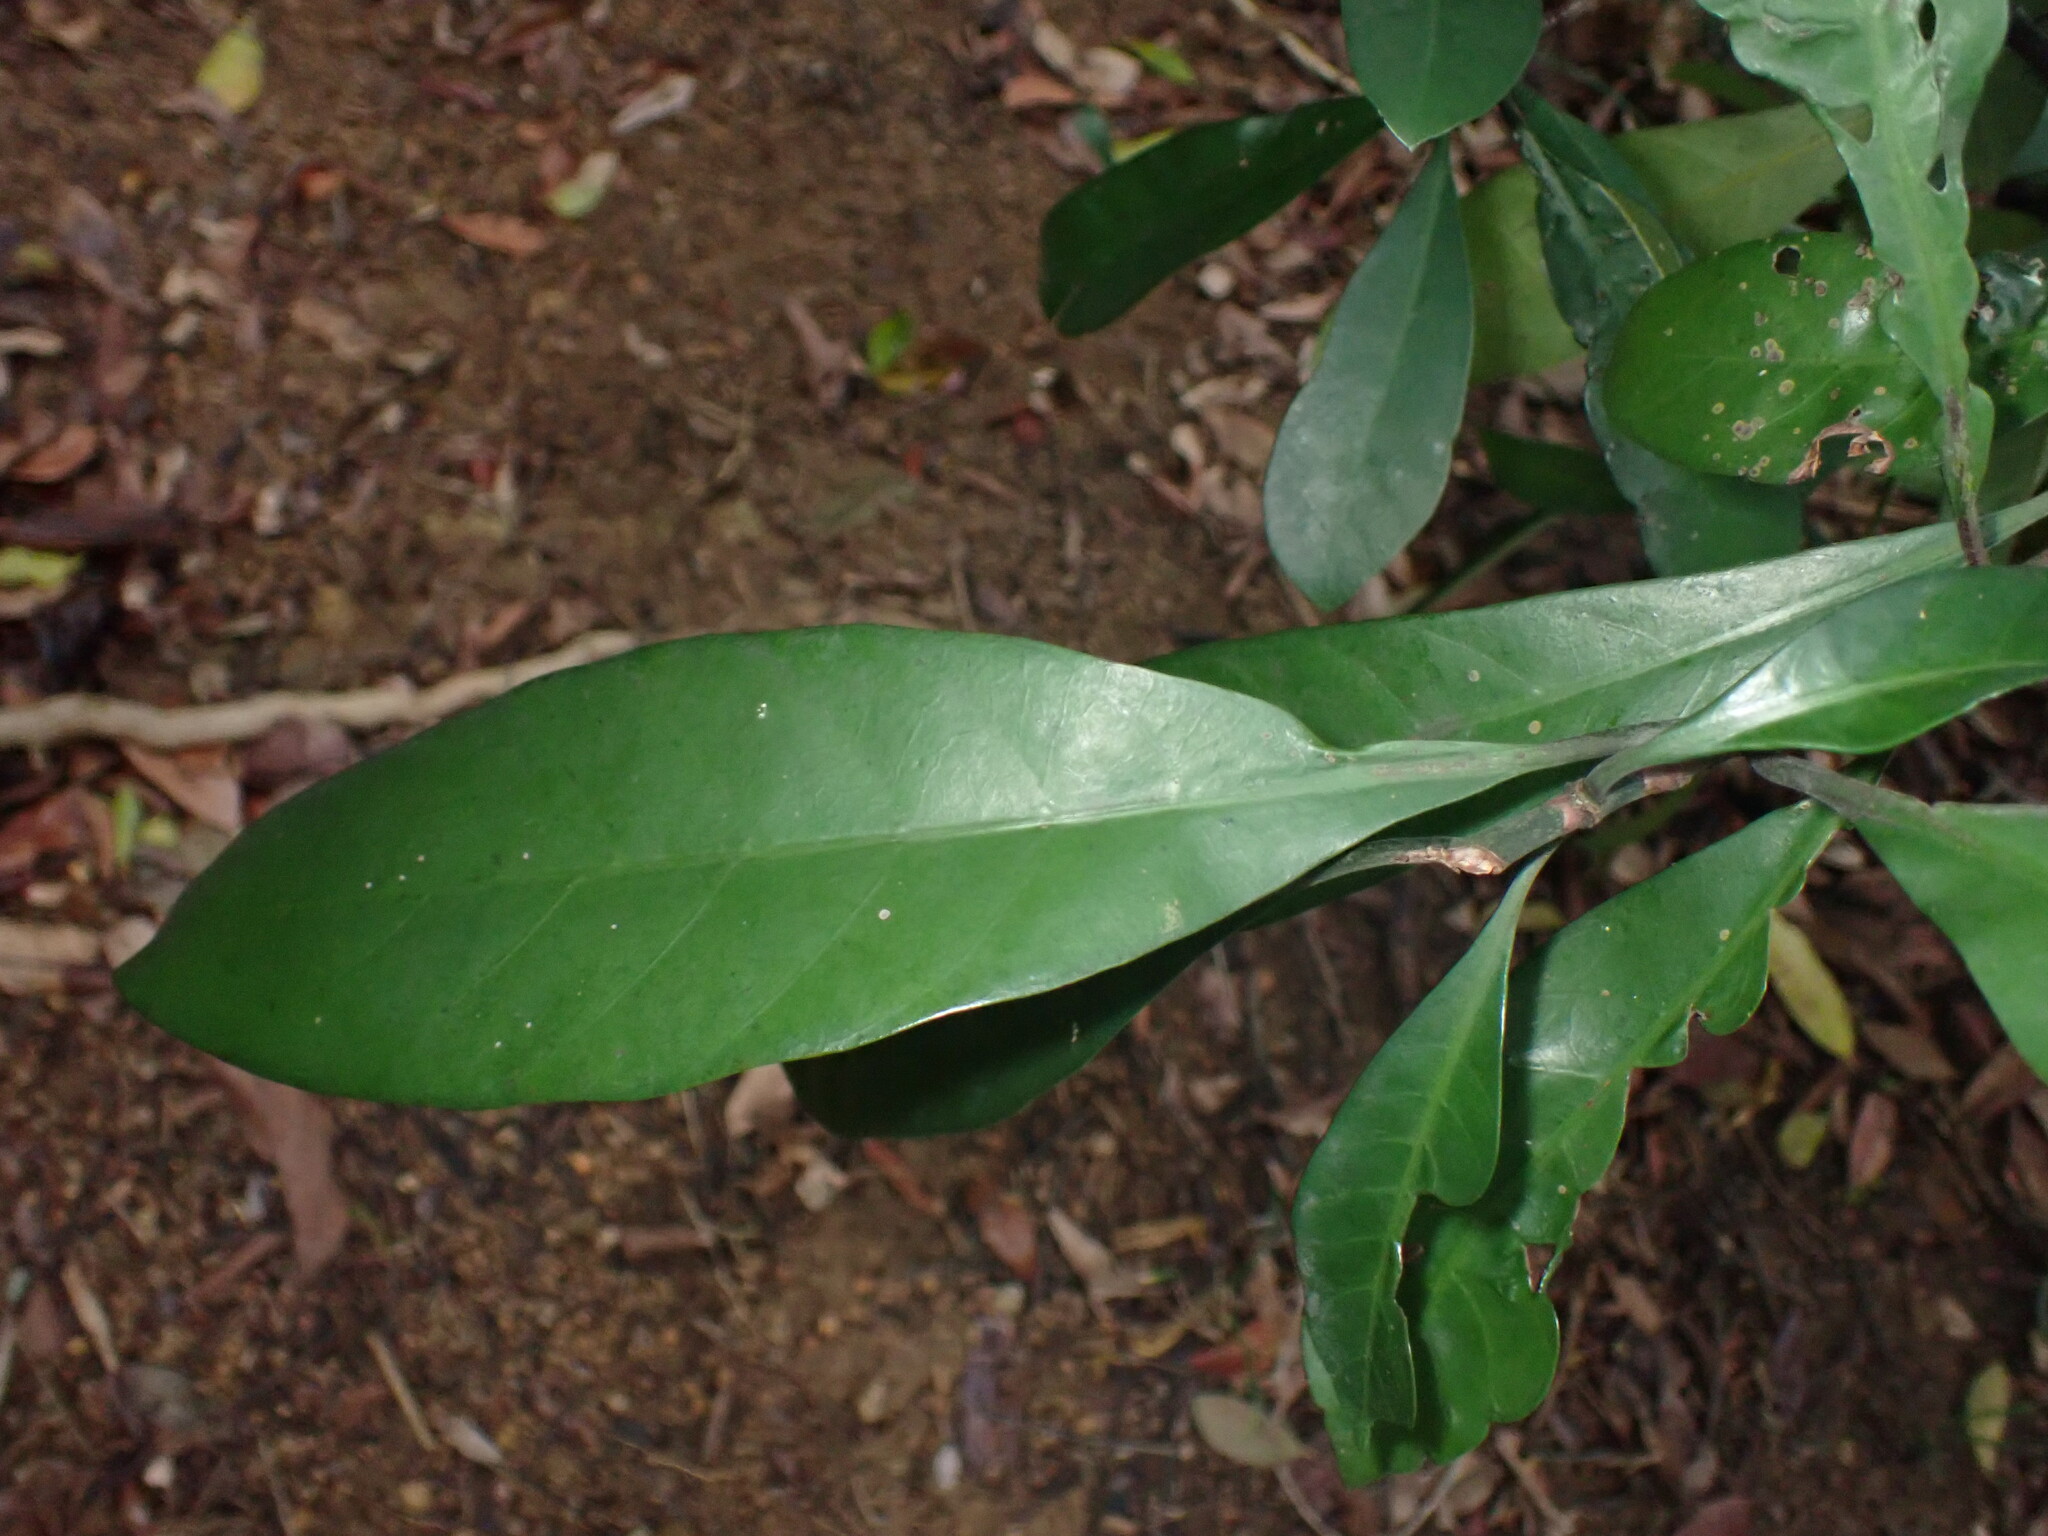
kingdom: Plantae
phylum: Tracheophyta
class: Magnoliopsida
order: Gentianales
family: Rubiaceae
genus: Psychotria
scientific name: Psychotria asiatica
